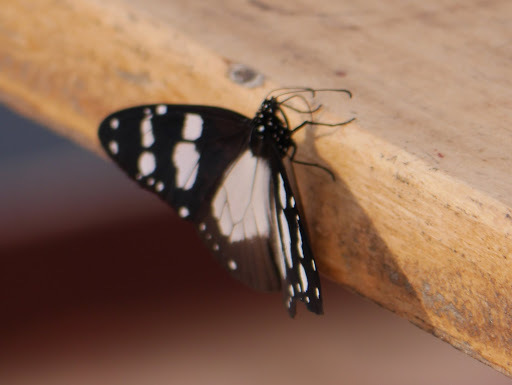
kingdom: Animalia
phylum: Arthropoda
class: Insecta
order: Lepidoptera
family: Nymphalidae
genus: Amauris
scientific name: Amauris tartarea
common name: Monk
